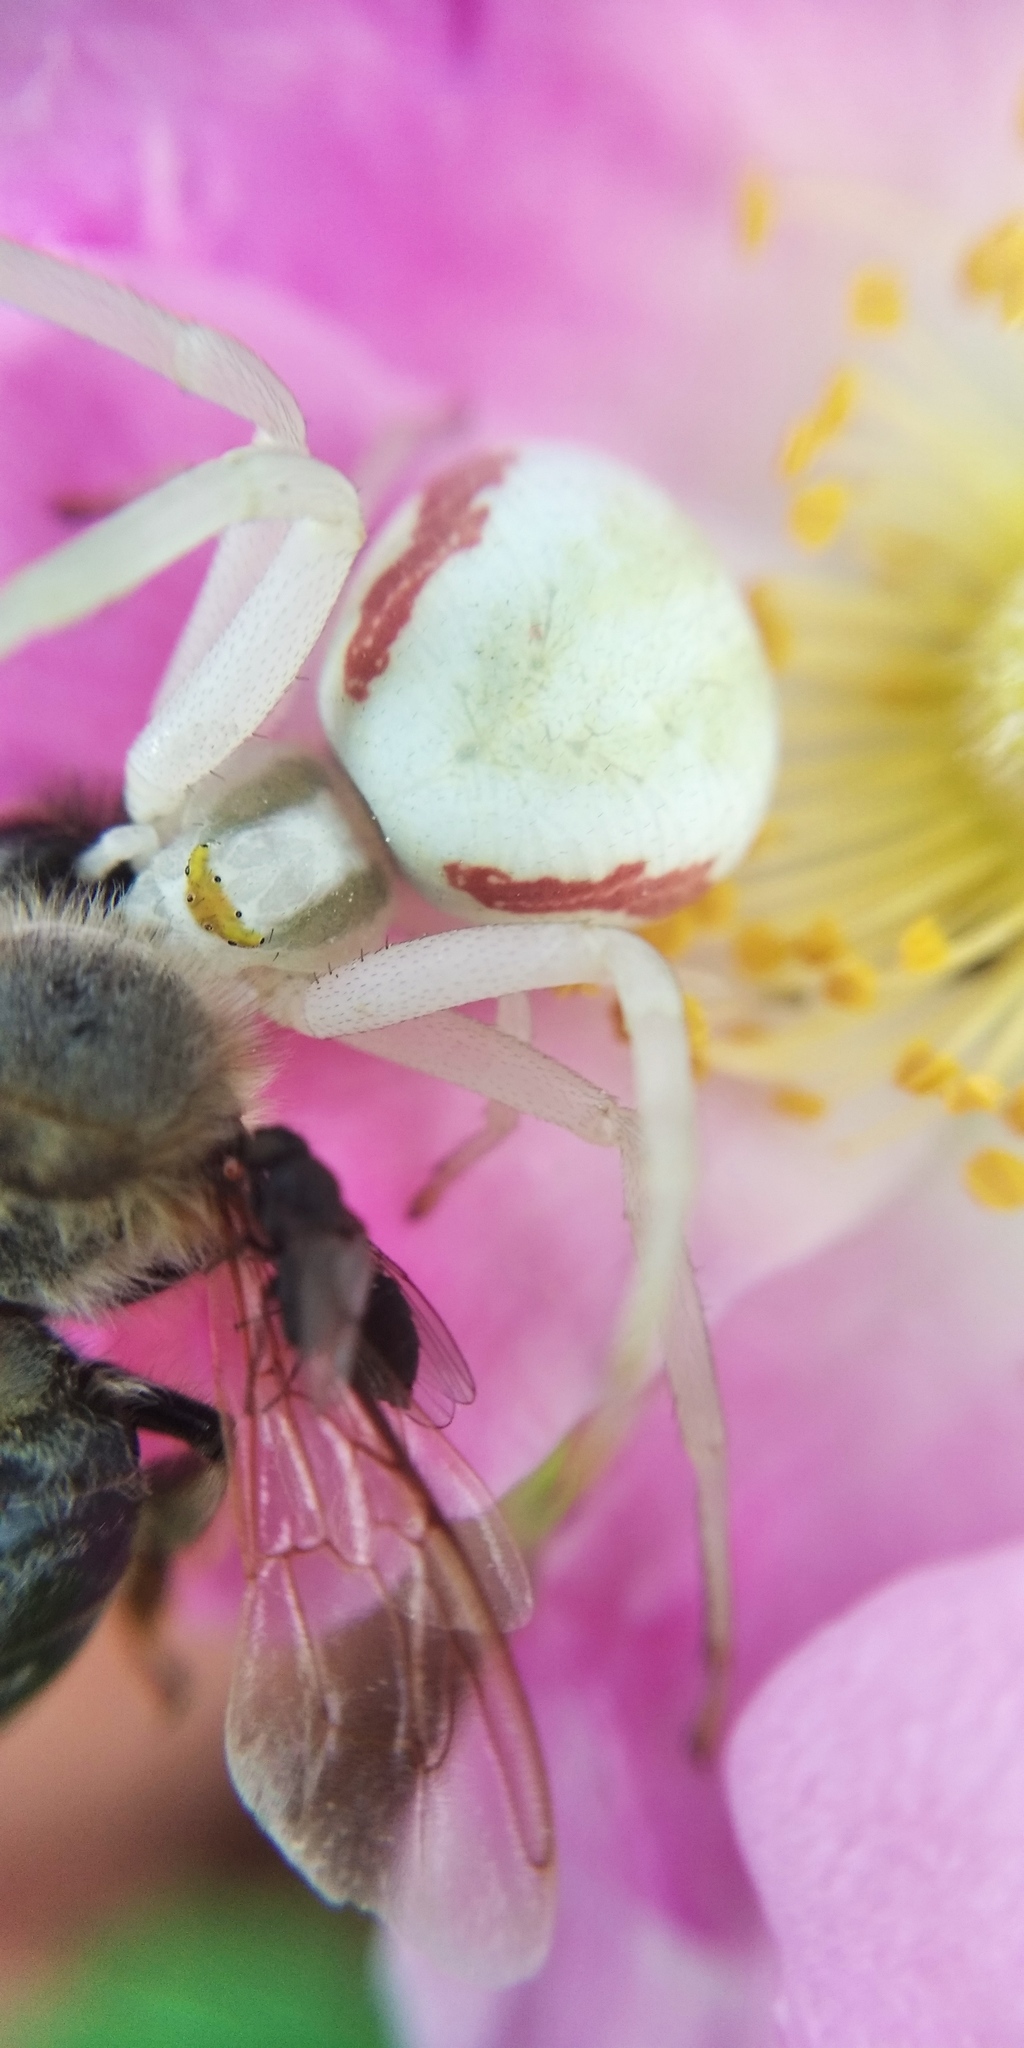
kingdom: Animalia
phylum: Arthropoda
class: Arachnida
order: Araneae
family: Thomisidae
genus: Misumena
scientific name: Misumena vatia
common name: Goldenrod crab spider
